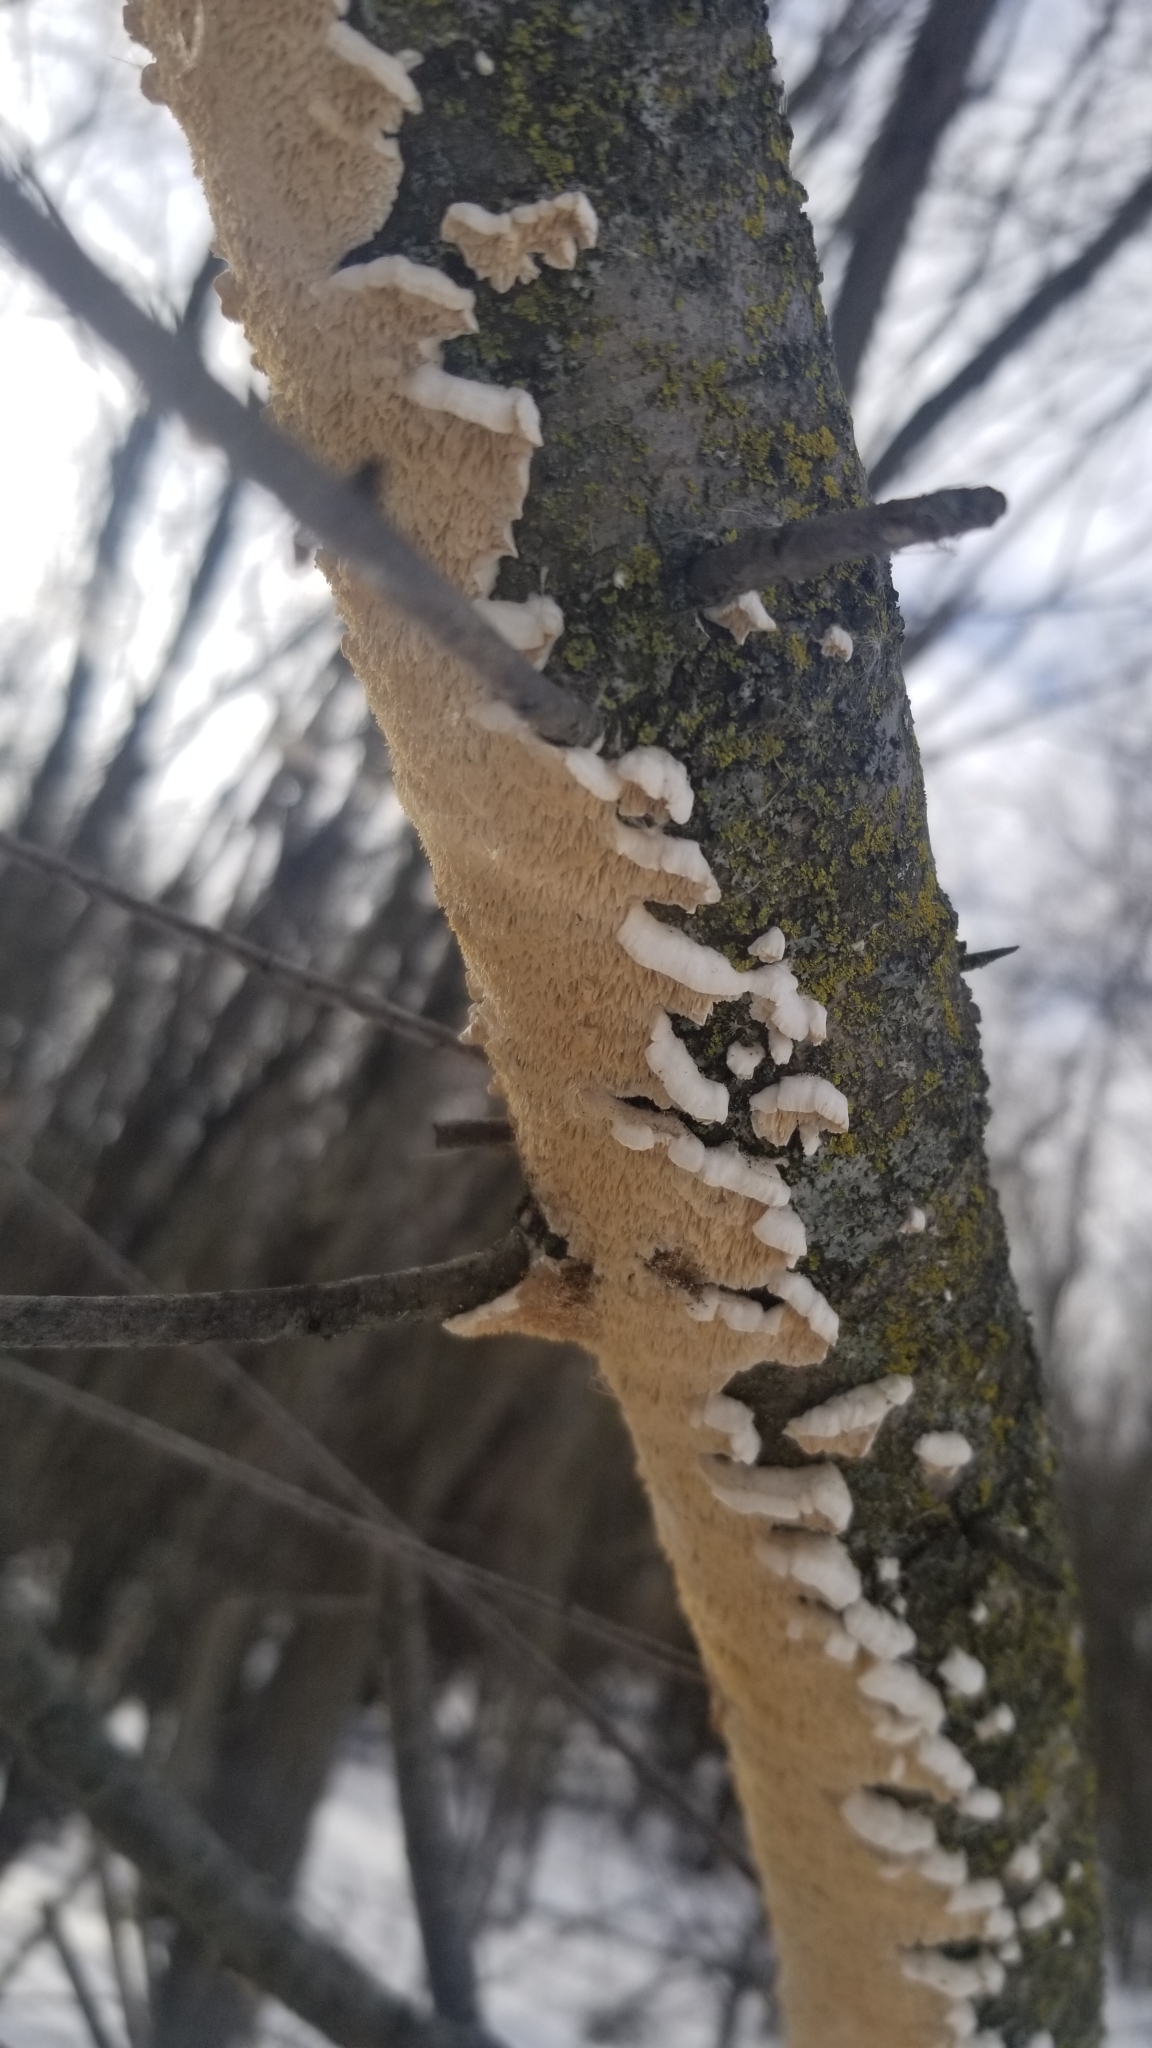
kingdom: Fungi
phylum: Basidiomycota
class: Agaricomycetes
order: Polyporales
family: Irpicaceae
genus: Irpex
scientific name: Irpex lacteus
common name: Milk-white toothed polypore
